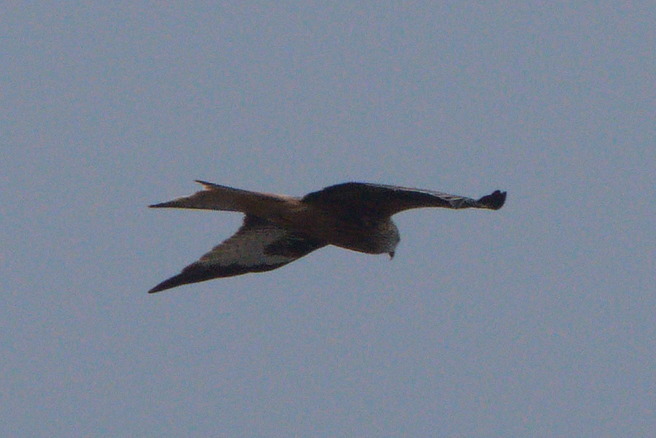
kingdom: Animalia
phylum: Chordata
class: Aves
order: Accipitriformes
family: Accipitridae
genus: Milvus
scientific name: Milvus milvus
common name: Red kite
